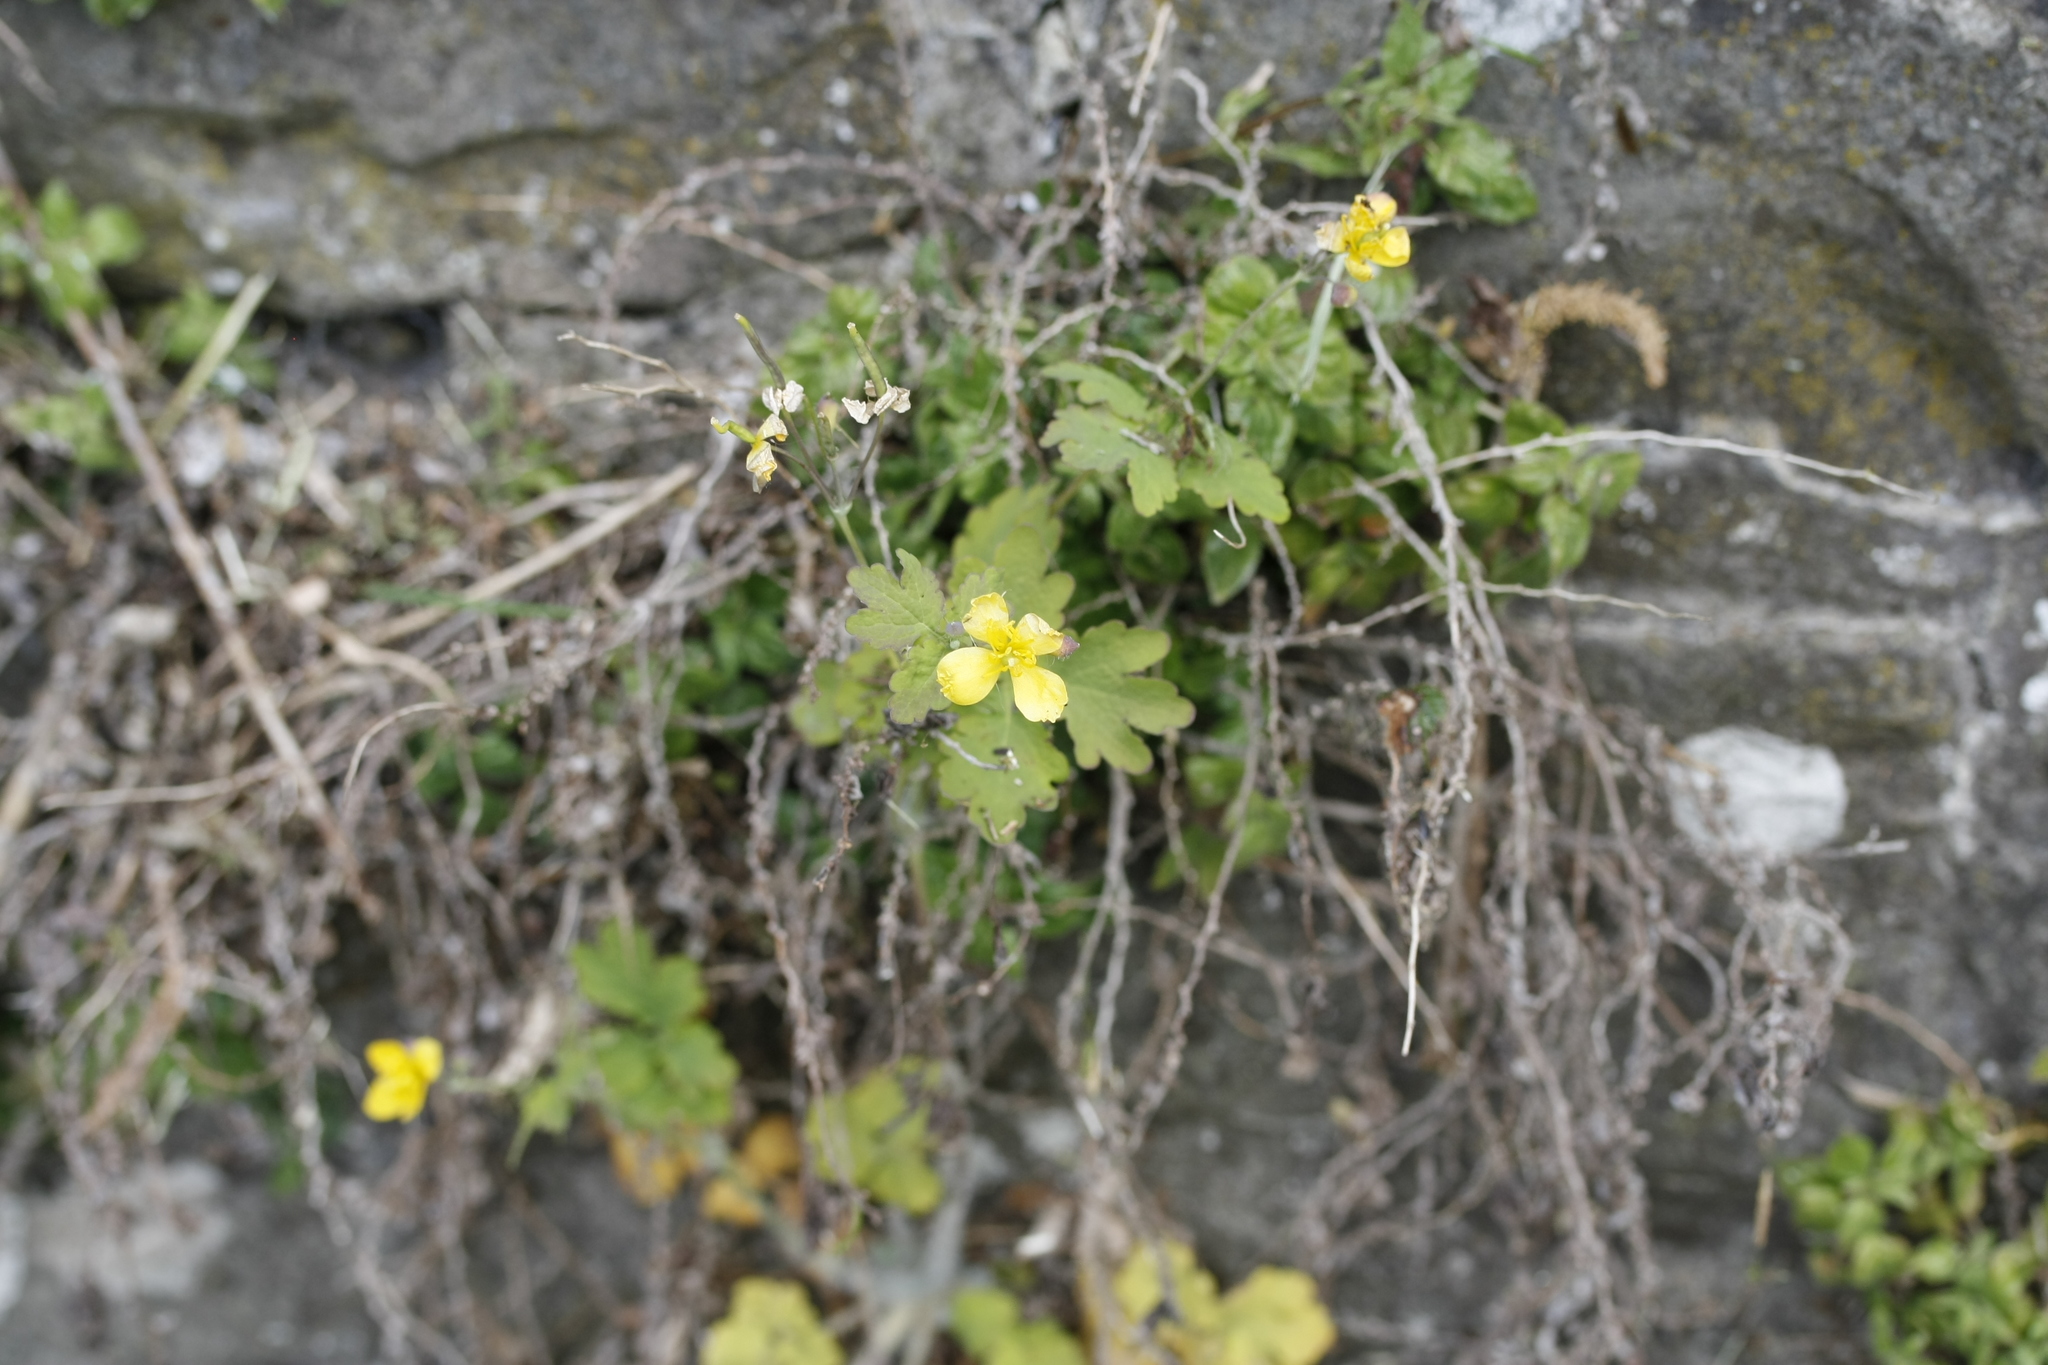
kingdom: Plantae
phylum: Tracheophyta
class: Magnoliopsida
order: Ranunculales
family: Papaveraceae
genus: Chelidonium
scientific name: Chelidonium majus
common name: Greater celandine
